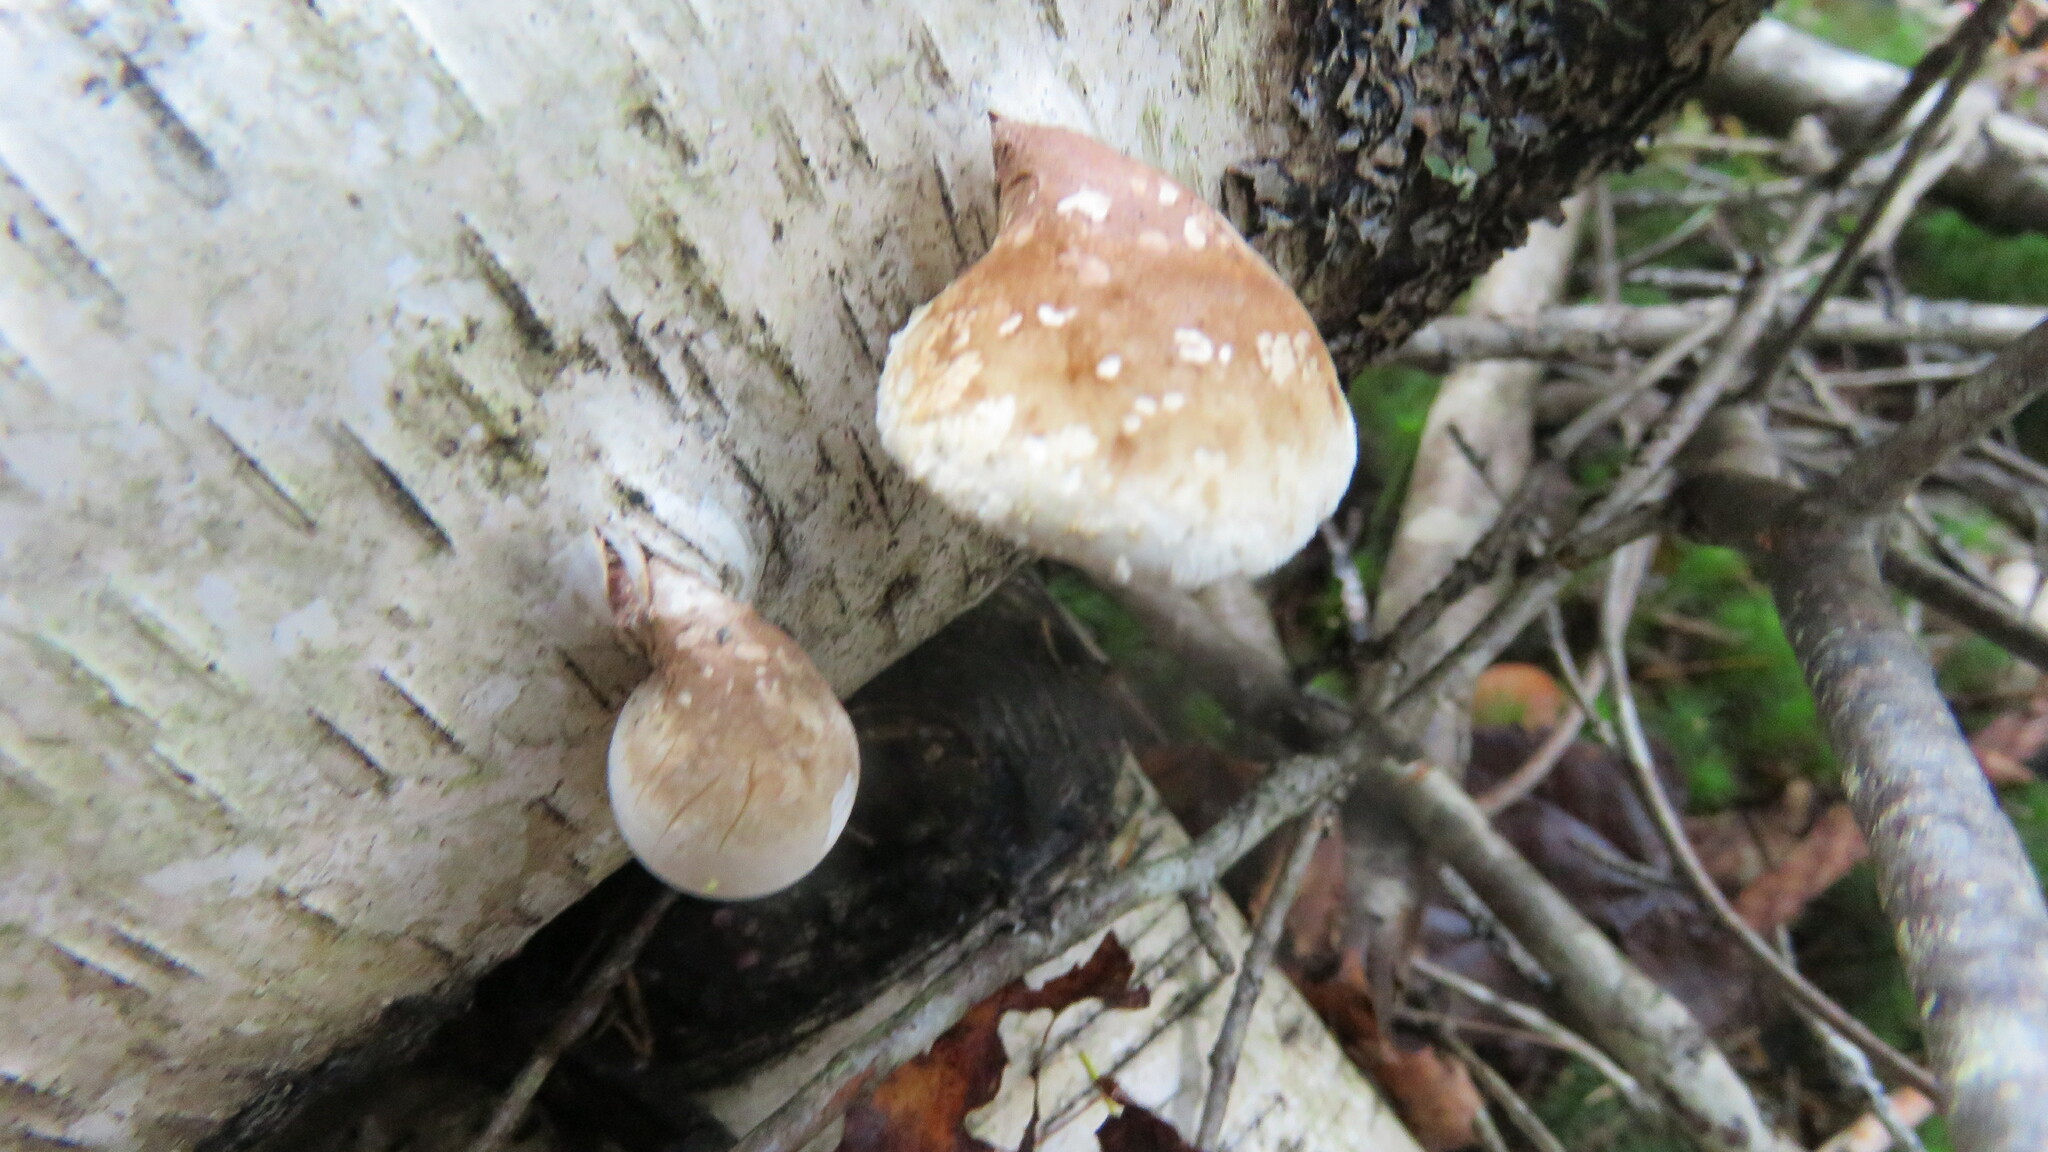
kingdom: Fungi
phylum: Basidiomycota
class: Agaricomycetes
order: Polyporales
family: Fomitopsidaceae
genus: Fomitopsis
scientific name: Fomitopsis betulina
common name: Birch polypore
